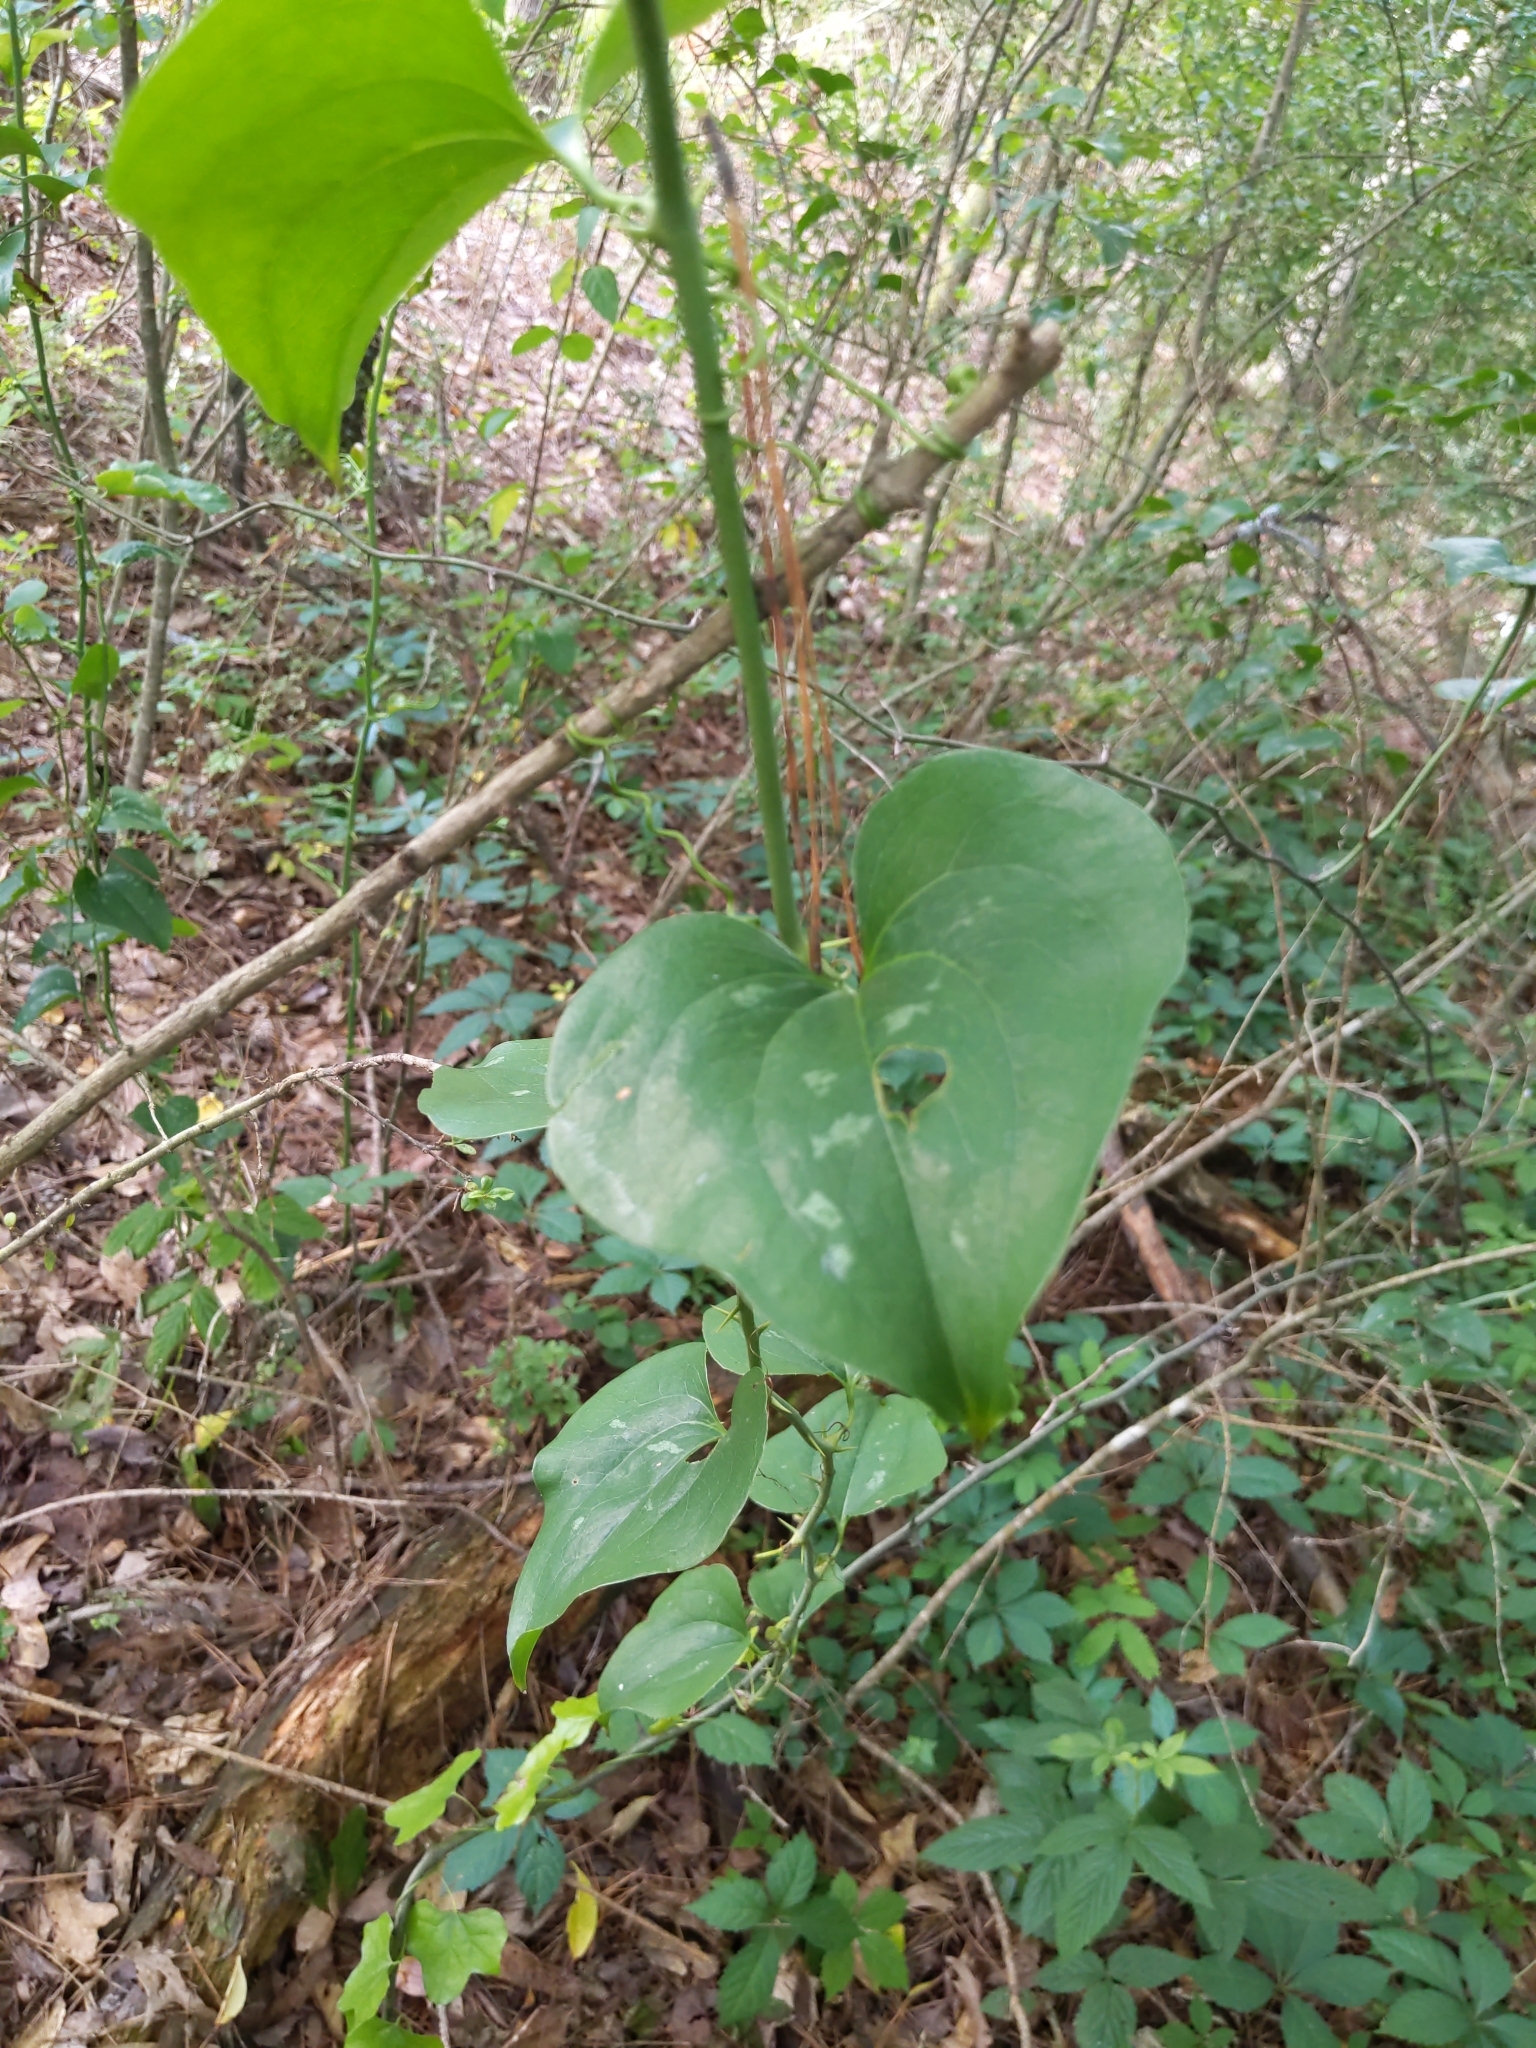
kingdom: Plantae
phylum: Tracheophyta
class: Liliopsida
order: Liliales
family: Smilacaceae
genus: Smilax
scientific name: Smilax bona-nox
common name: Catbrier
